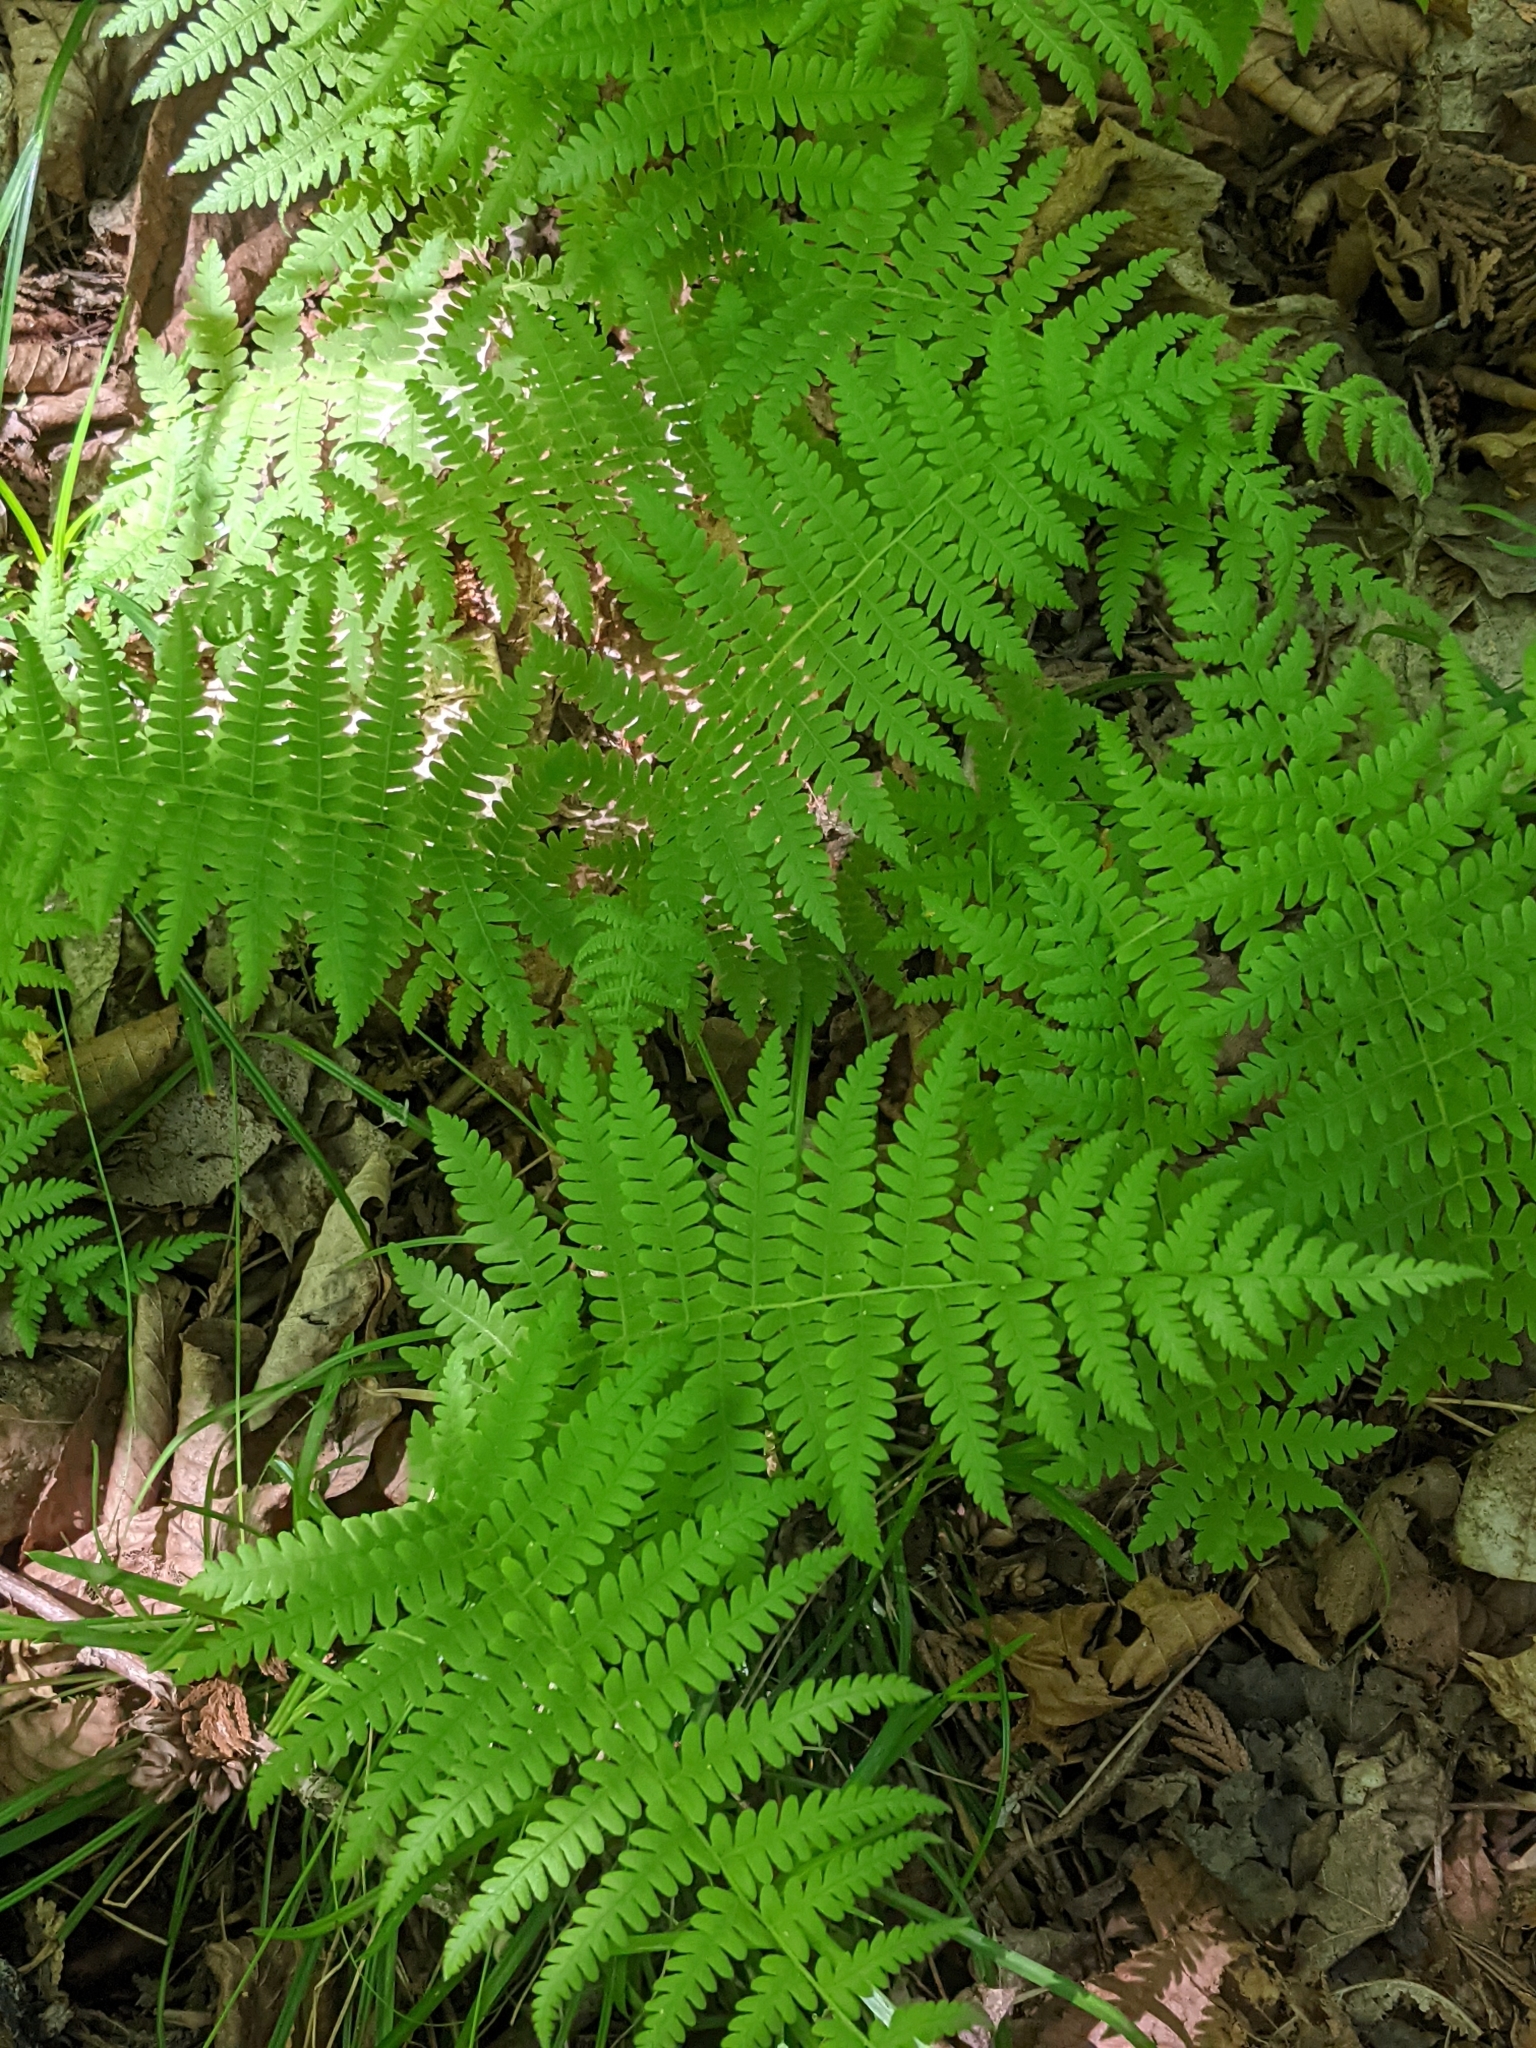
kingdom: Plantae
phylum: Tracheophyta
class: Polypodiopsida
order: Polypodiales
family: Thelypteridaceae
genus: Amauropelta
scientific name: Amauropelta noveboracensis
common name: New york fern
